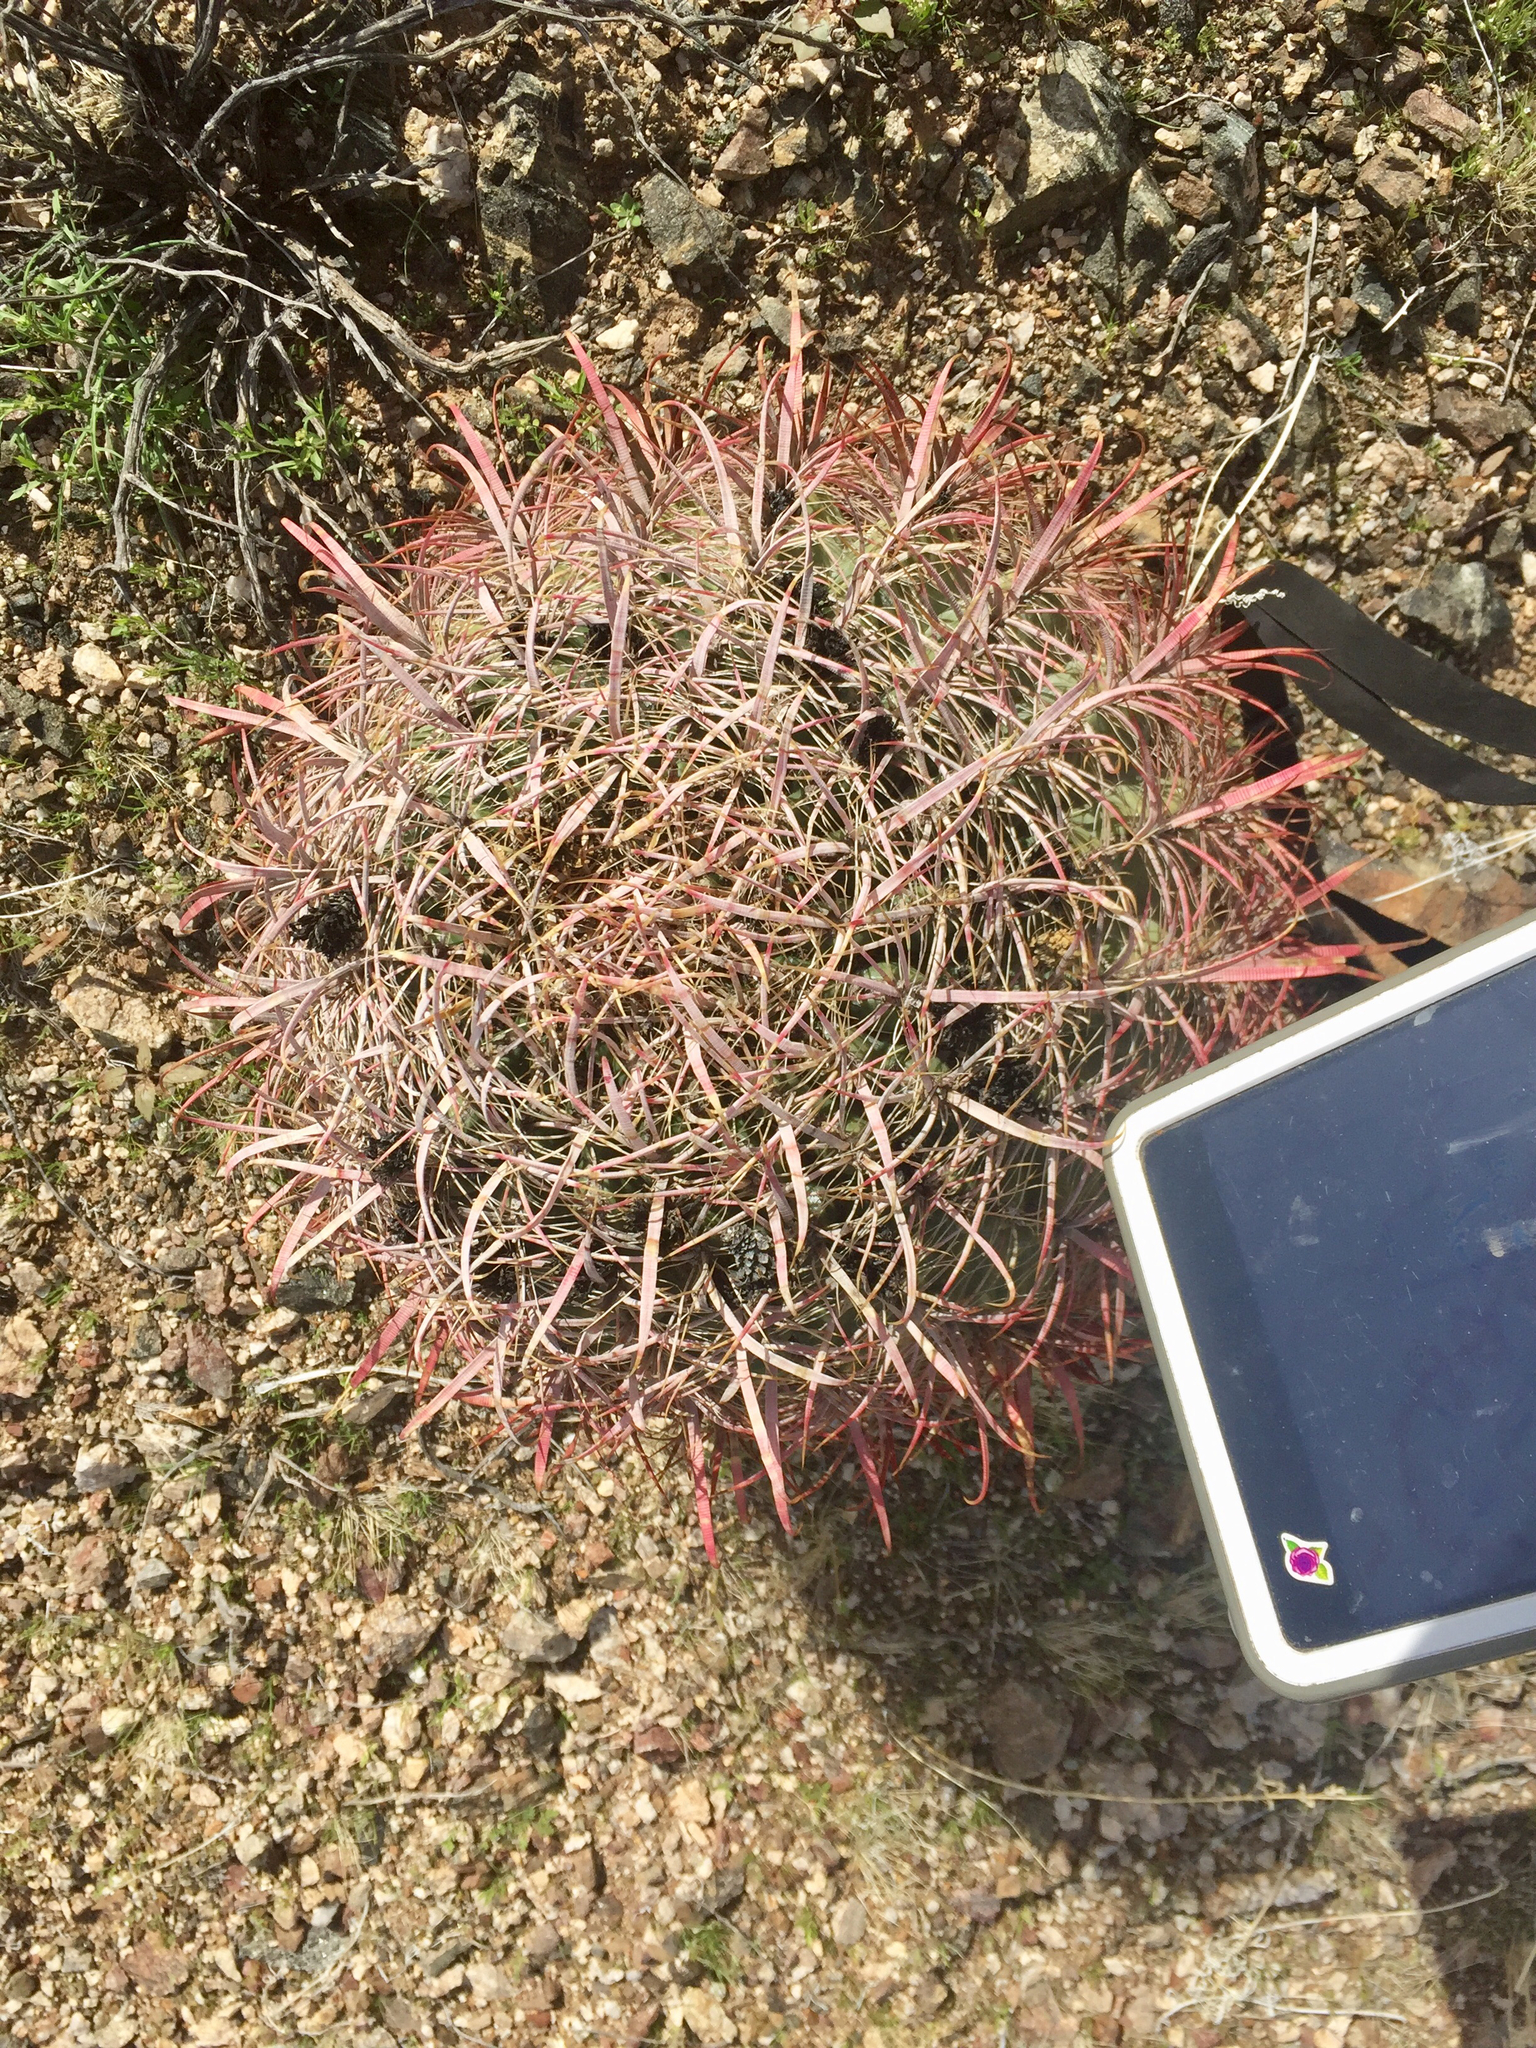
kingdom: Plantae
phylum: Tracheophyta
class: Magnoliopsida
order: Caryophyllales
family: Cactaceae
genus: Ferocactus
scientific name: Ferocactus cylindraceus
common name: California barrel cactus
